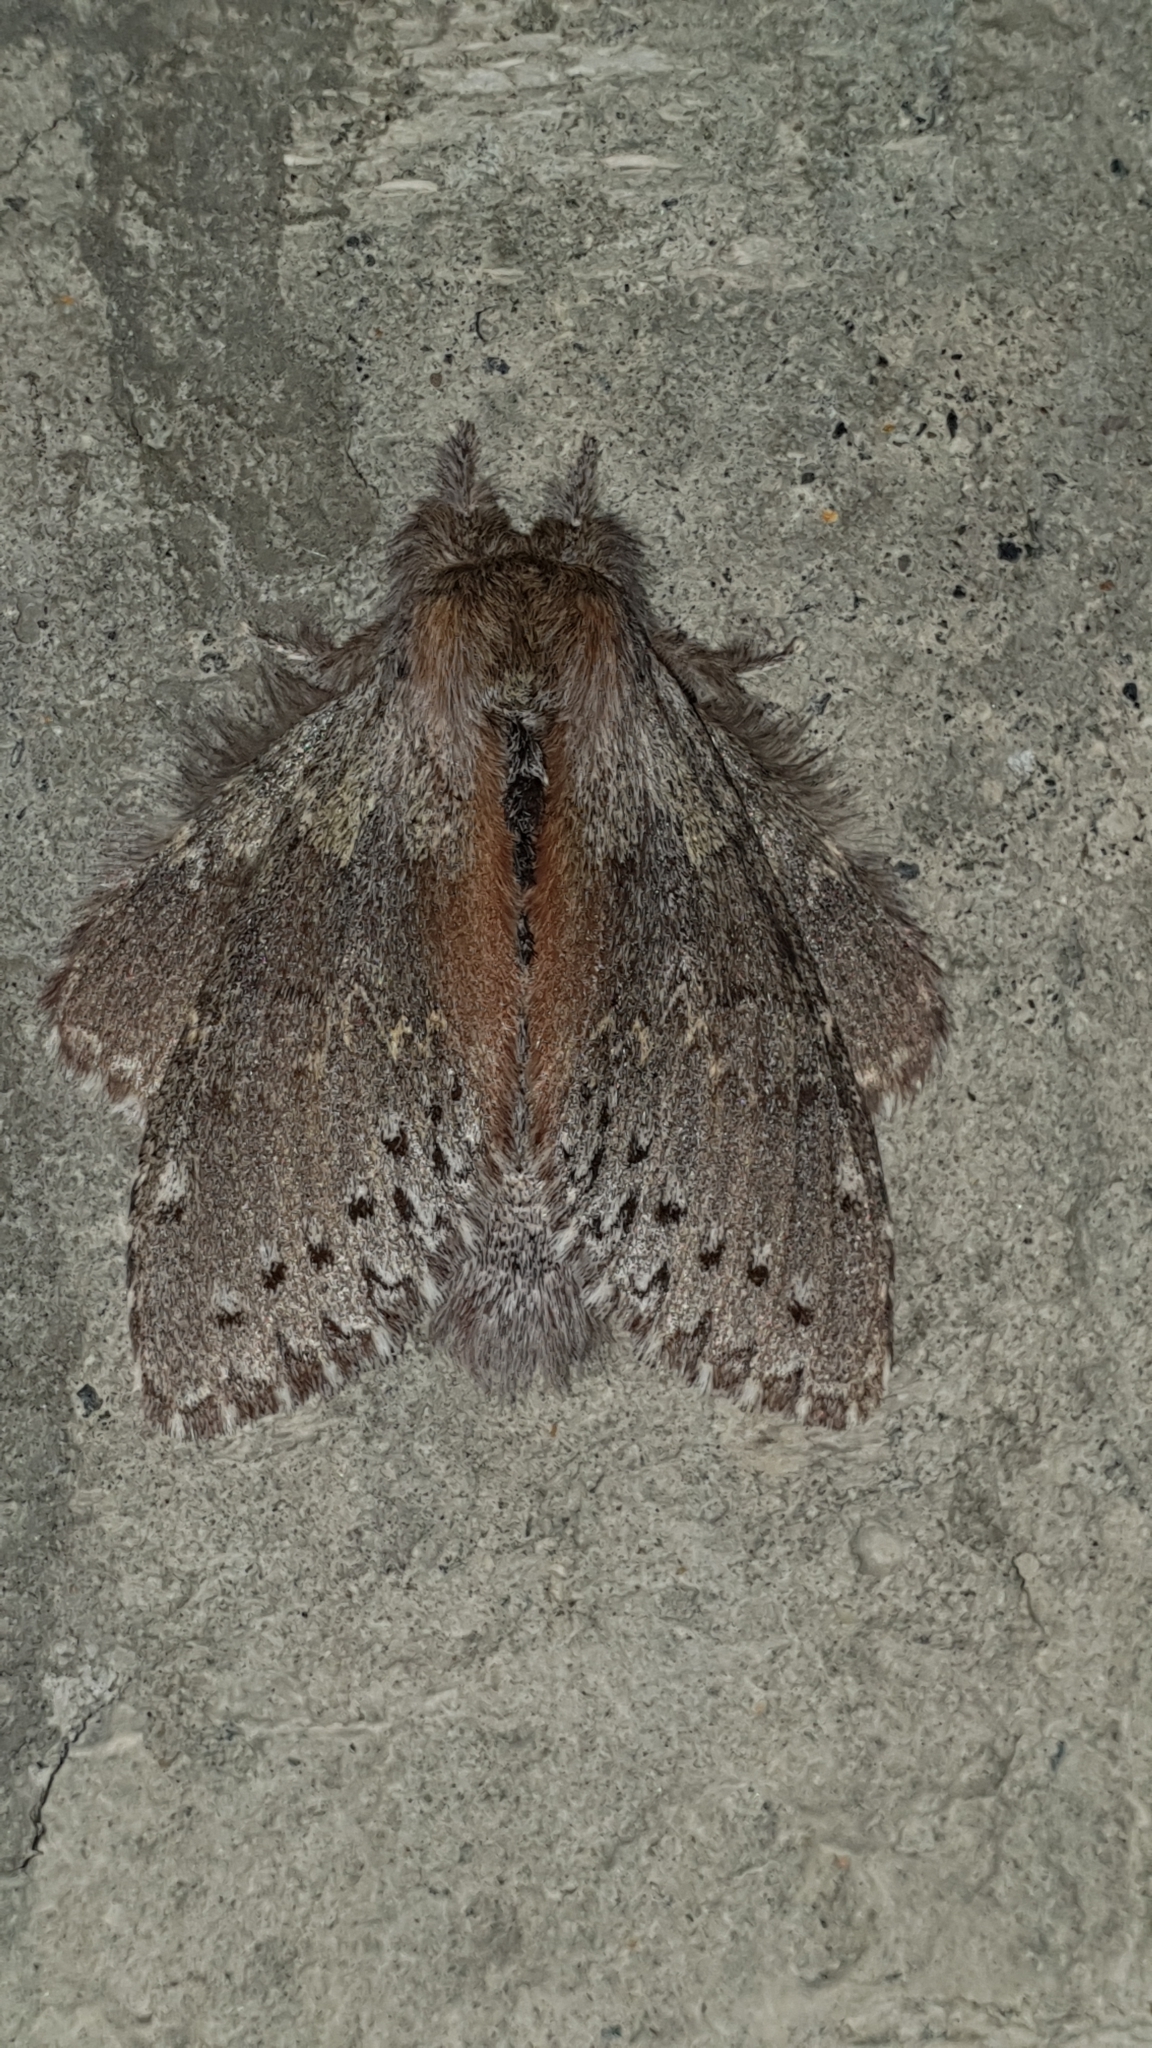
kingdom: Animalia
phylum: Arthropoda
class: Insecta
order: Lepidoptera
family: Notodontidae
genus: Stauropus
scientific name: Stauropus fagi
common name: Lobster moth
